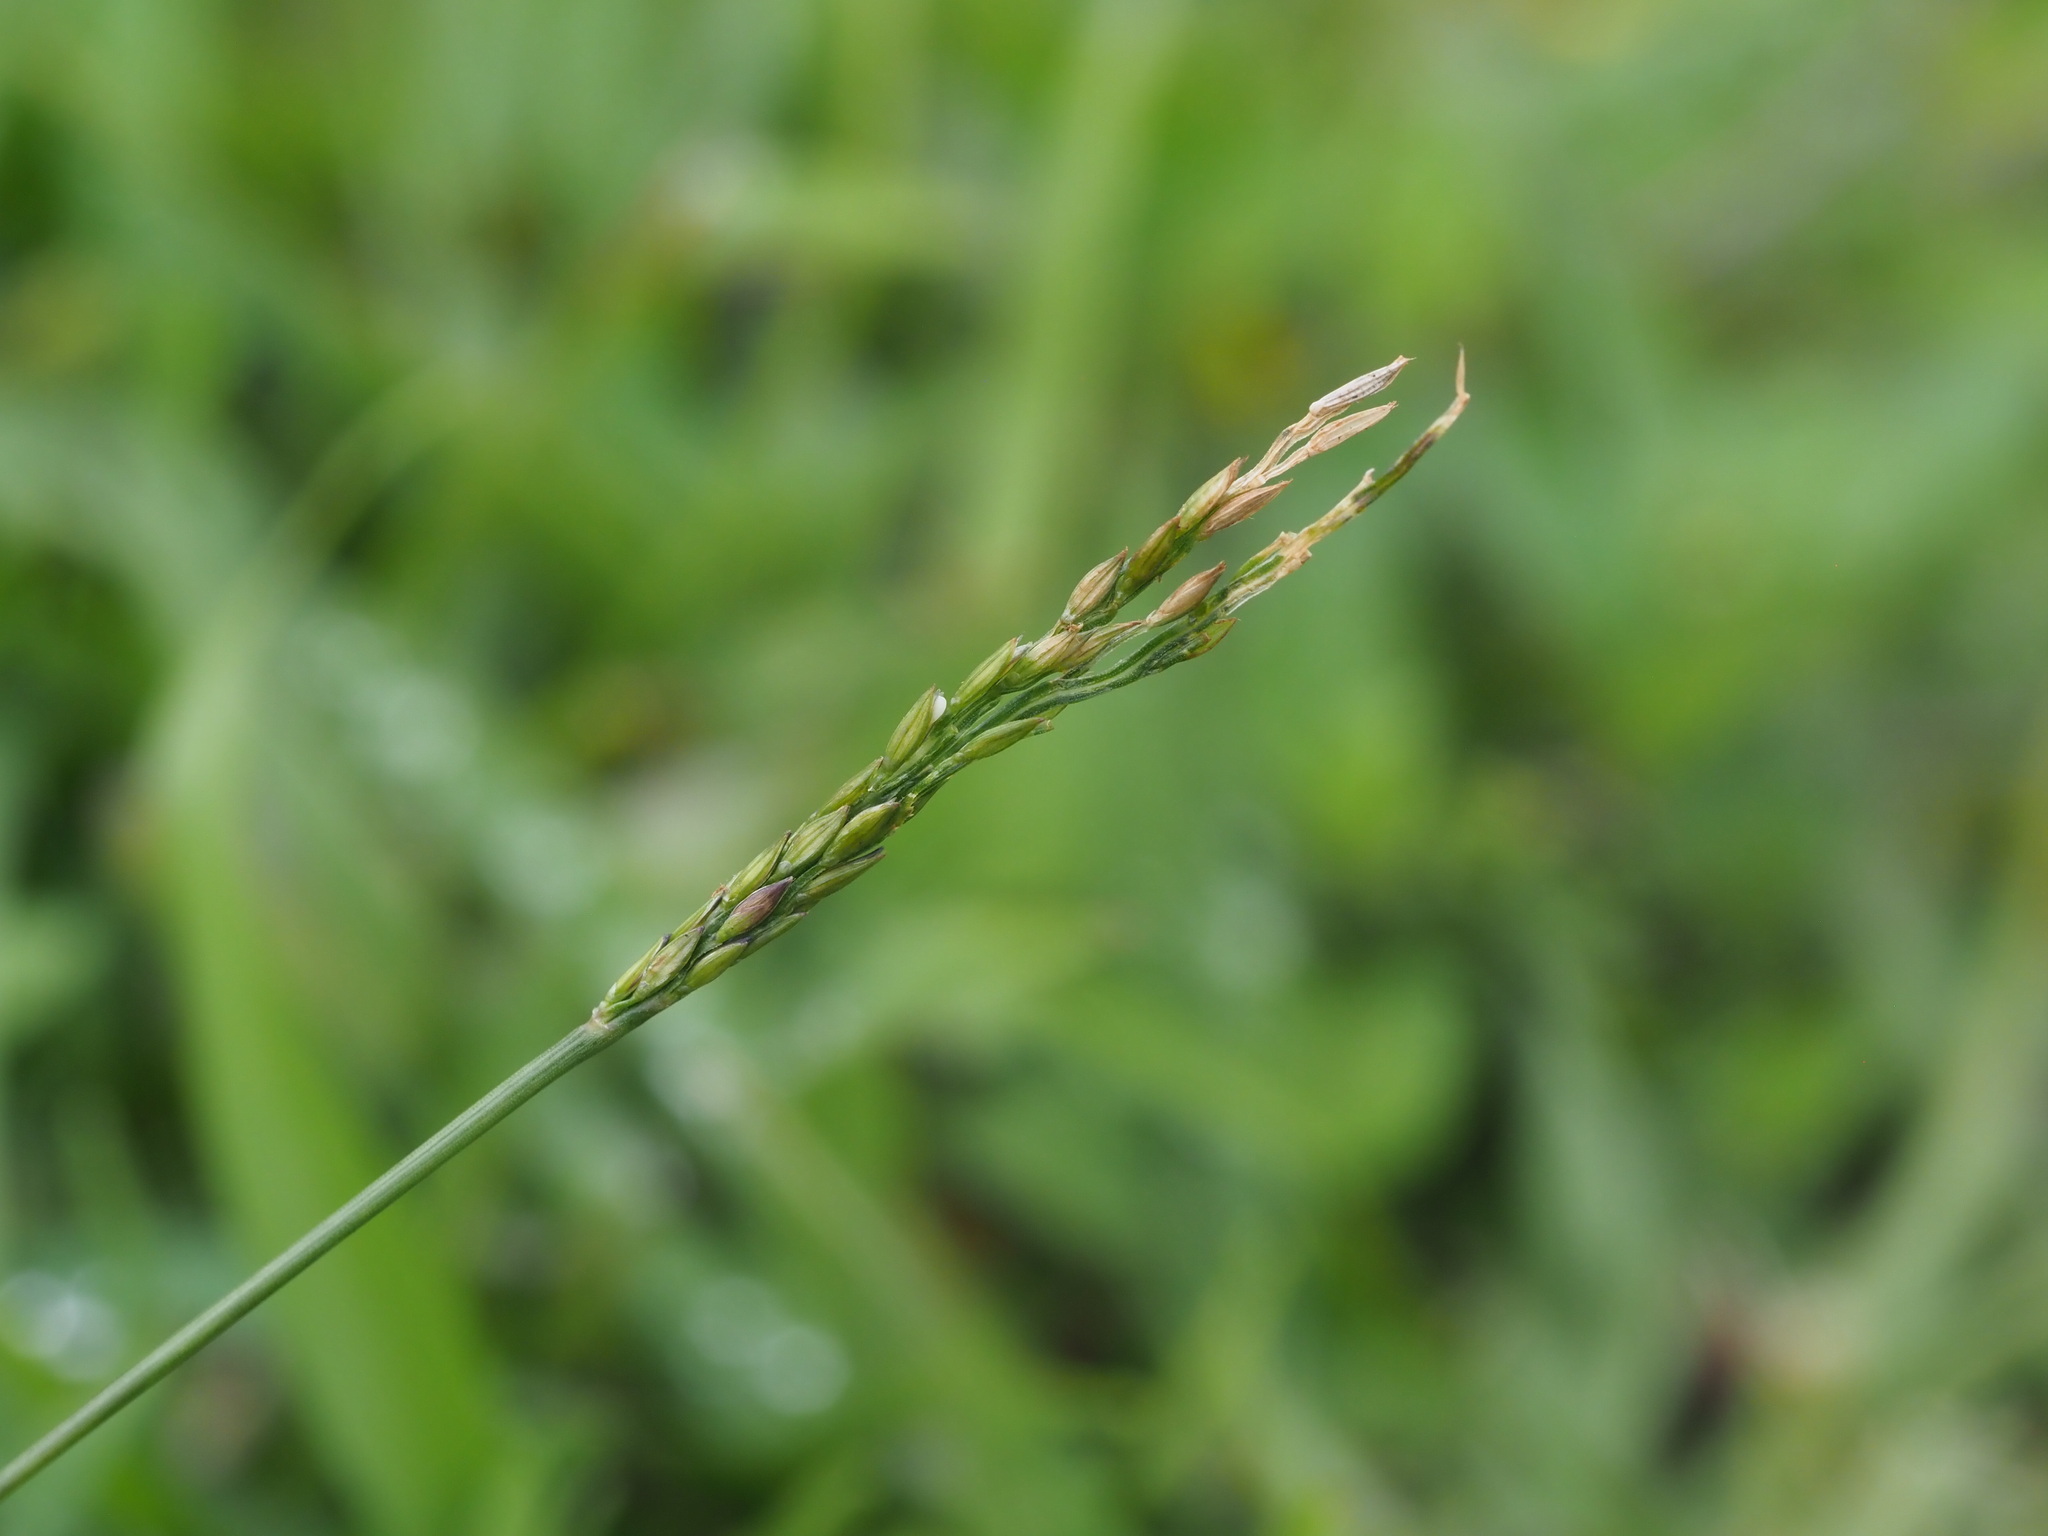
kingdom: Plantae
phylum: Tracheophyta
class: Liliopsida
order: Poales
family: Poaceae
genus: Digitaria
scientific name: Digitaria ciliaris
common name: Tropical finger-grass
